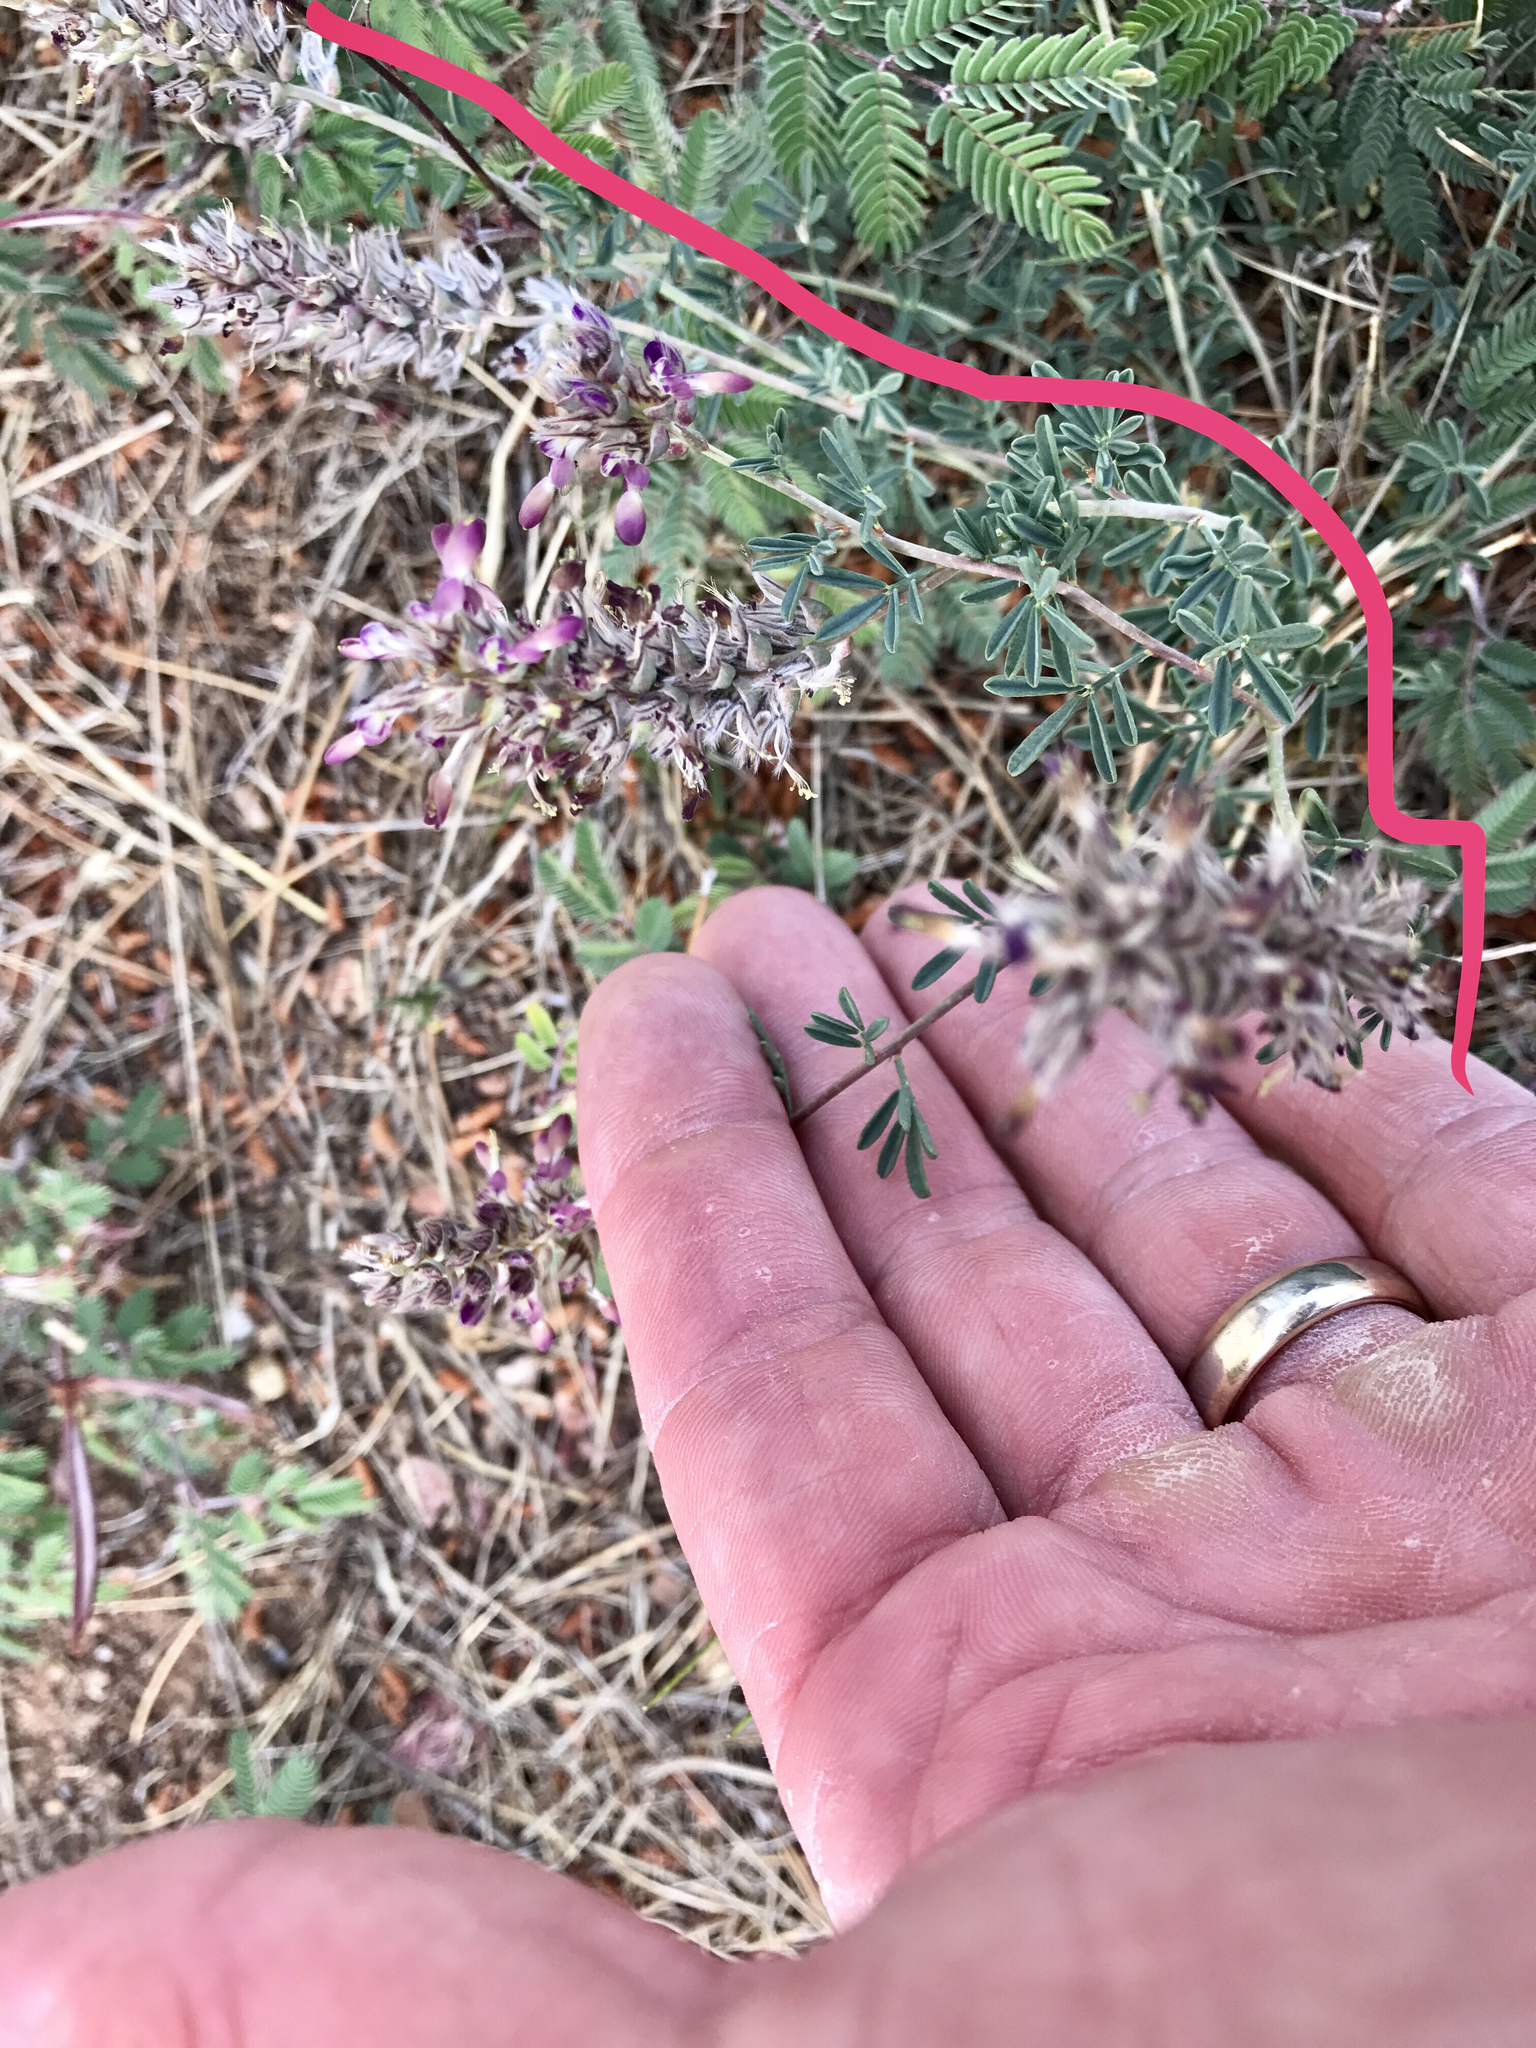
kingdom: Plantae
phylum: Tracheophyta
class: Magnoliopsida
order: Fabales
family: Fabaceae
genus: Dalea
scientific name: Dalea pogonathera
